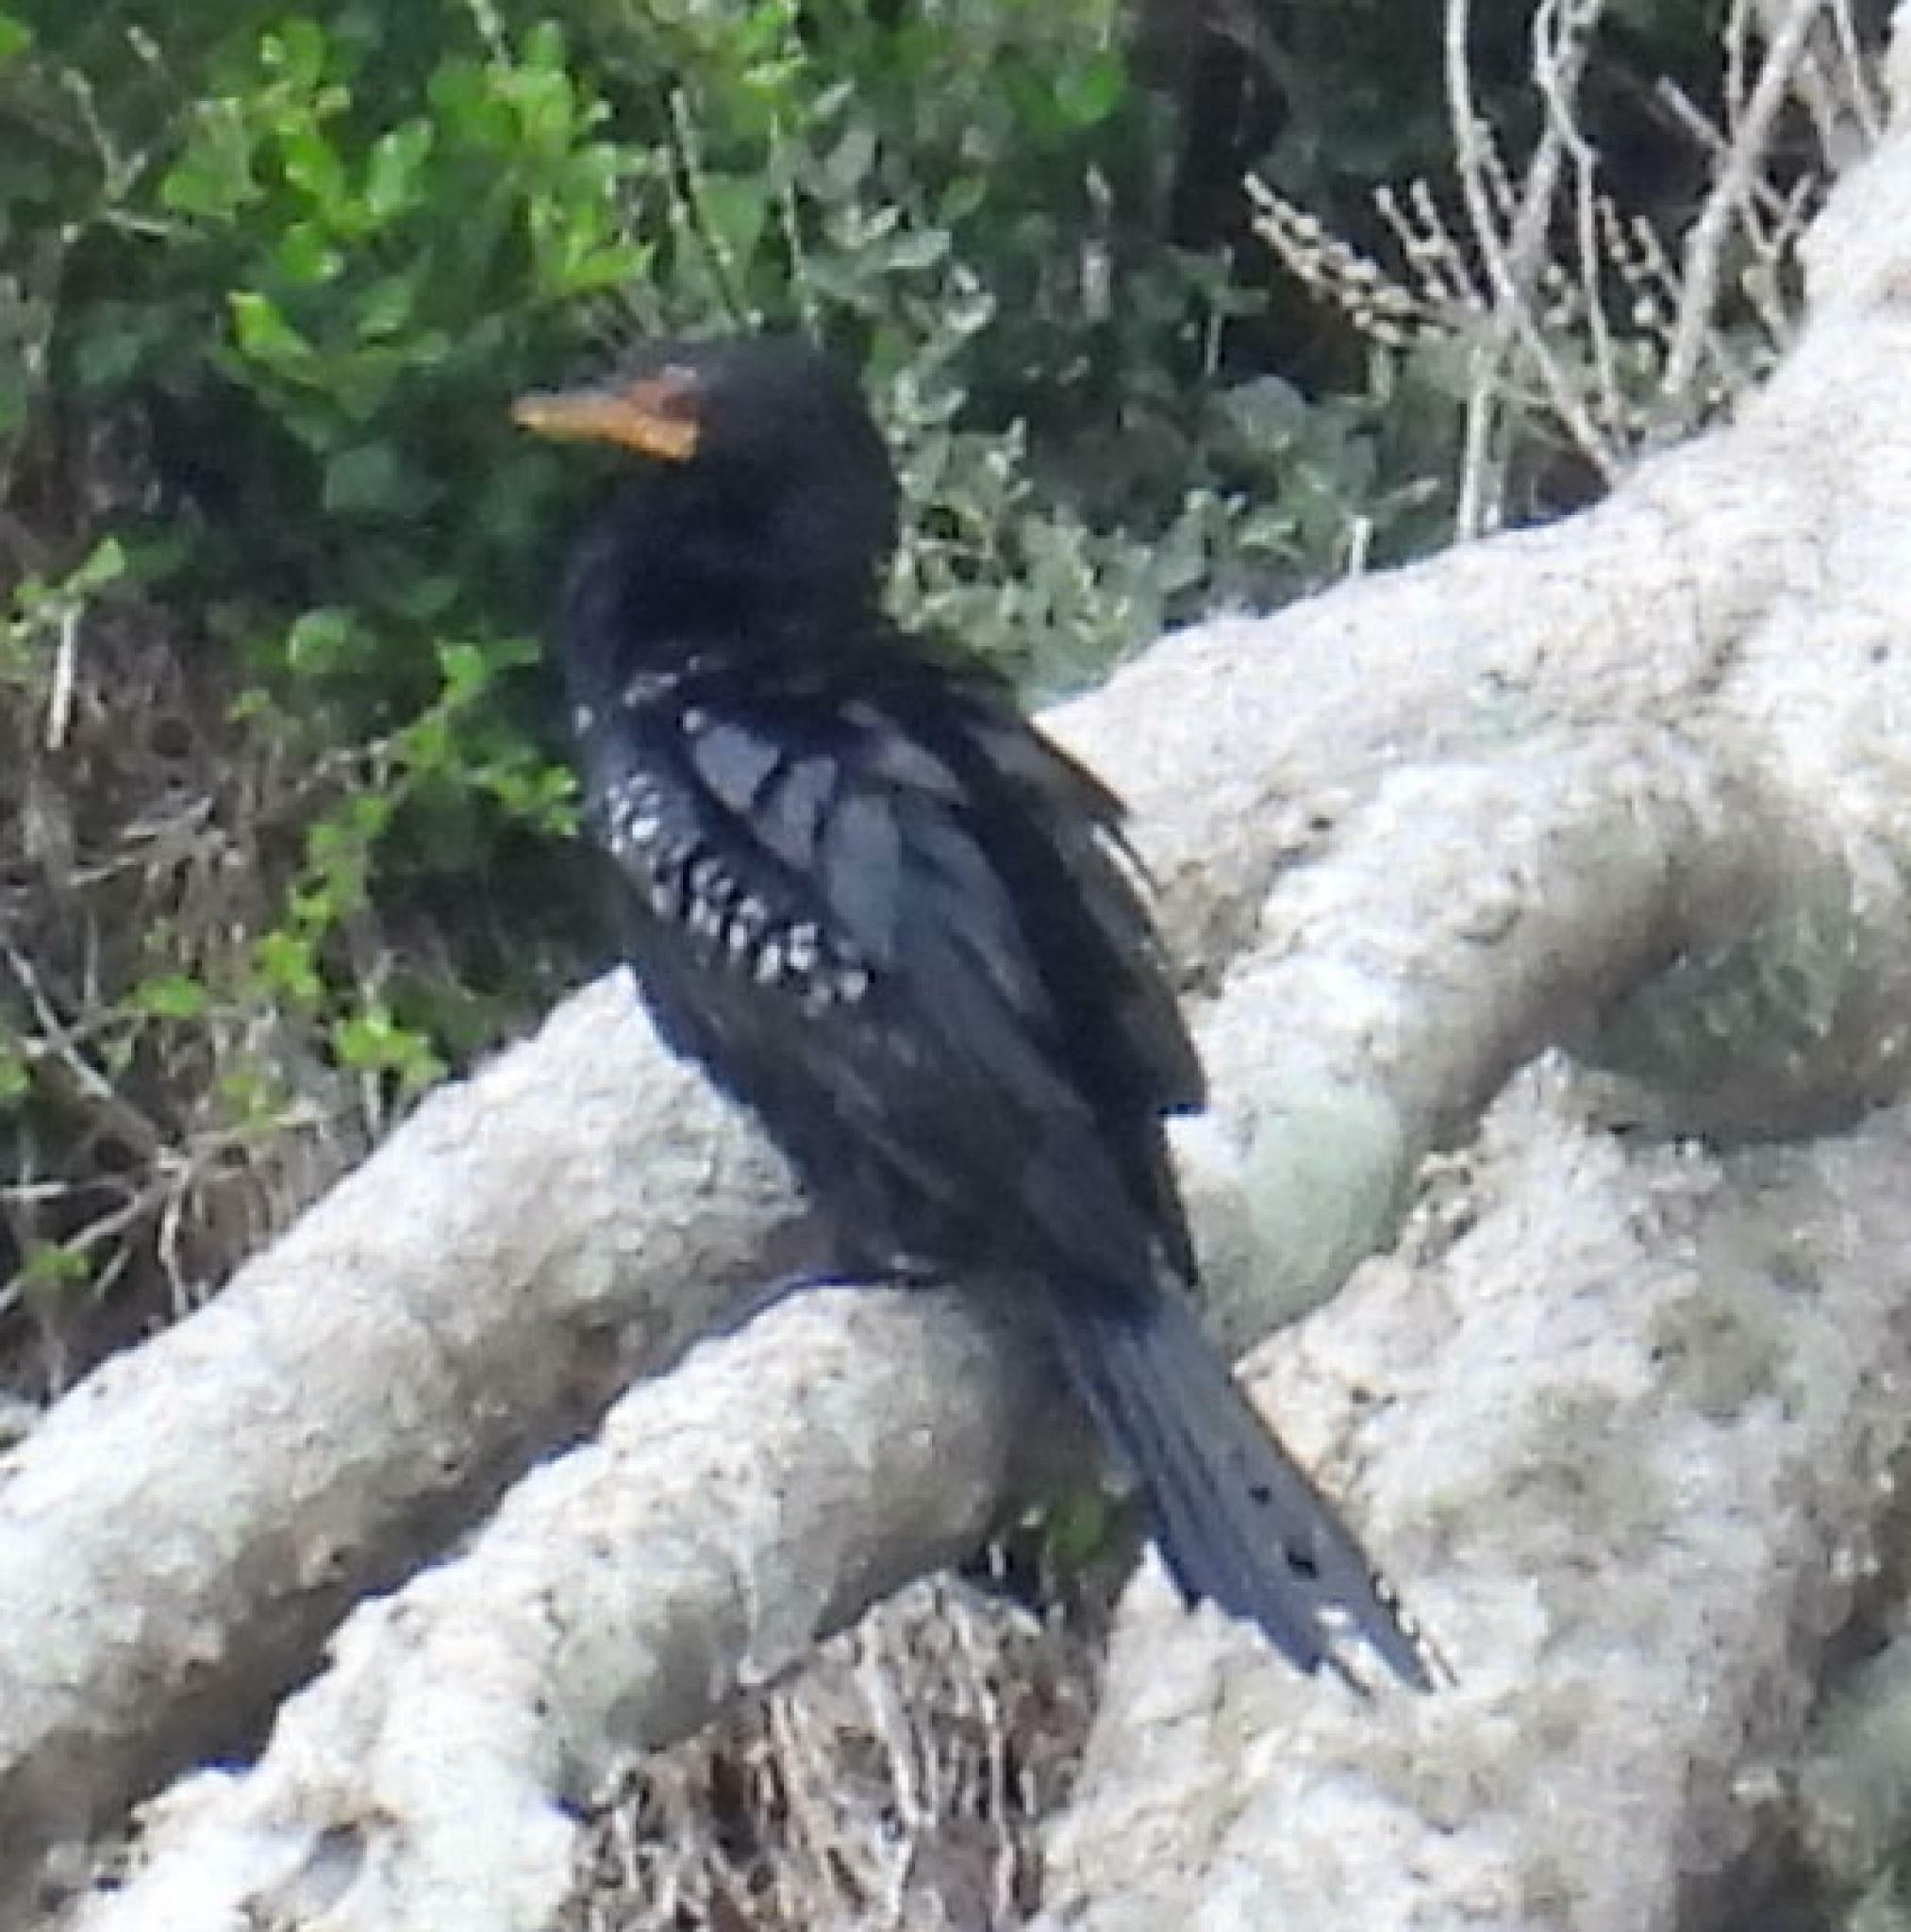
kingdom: Animalia
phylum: Chordata
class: Aves
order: Suliformes
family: Phalacrocoracidae
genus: Microcarbo
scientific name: Microcarbo africanus
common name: Long-tailed cormorant
